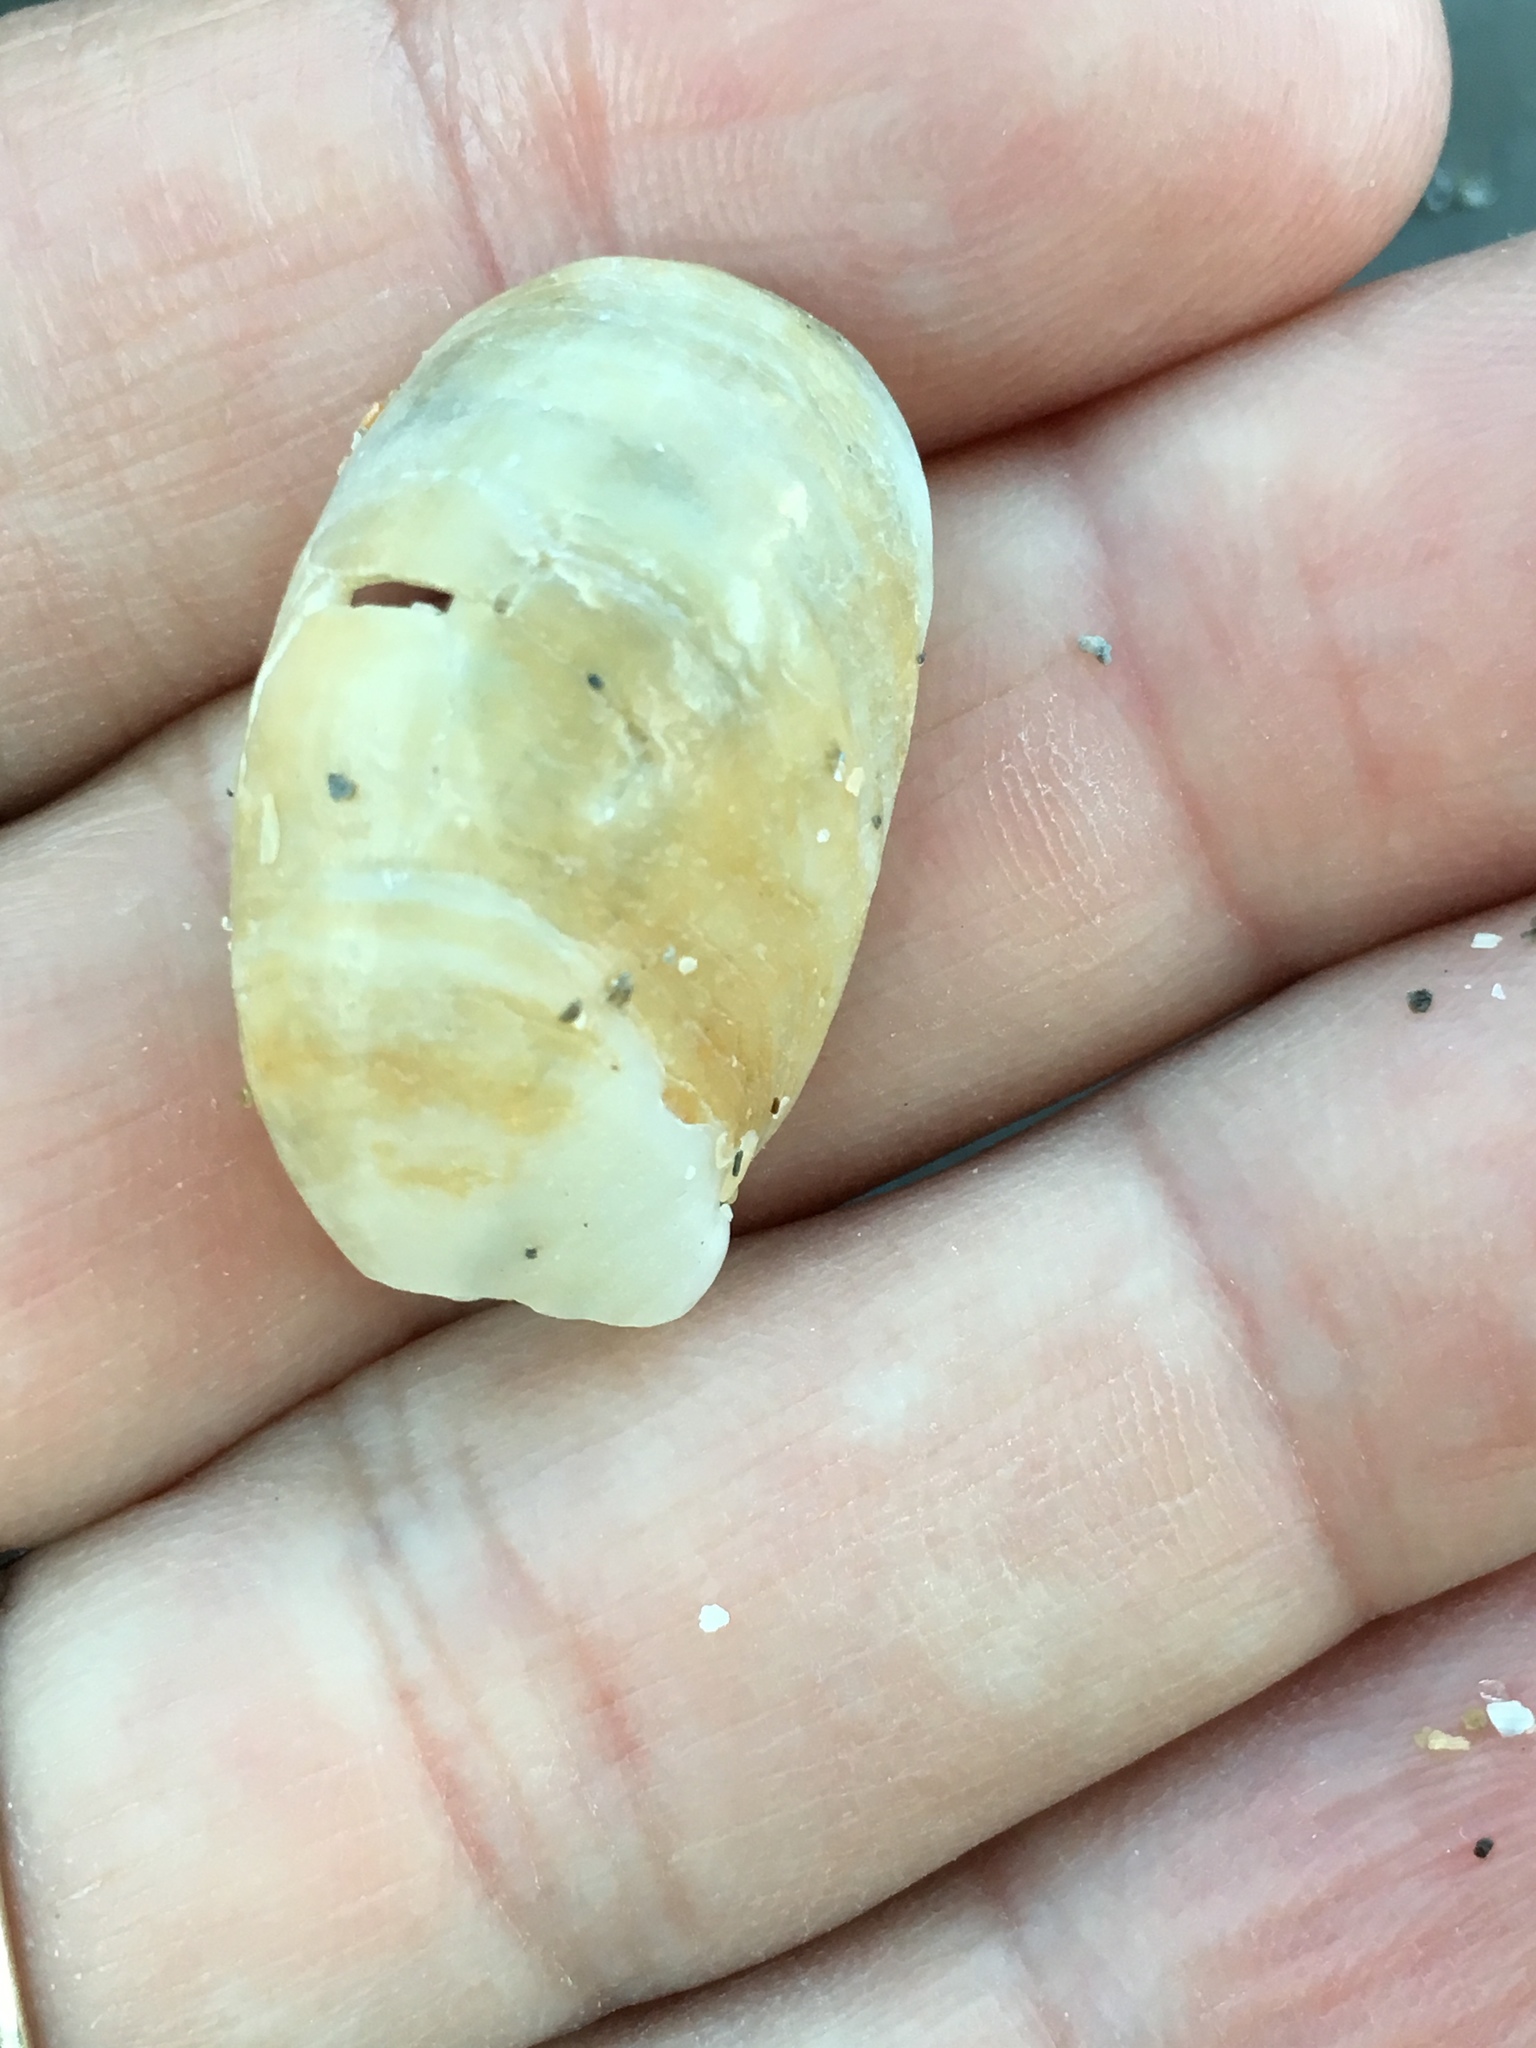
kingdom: Animalia
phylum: Mollusca
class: Gastropoda
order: Littorinimorpha
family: Calyptraeidae
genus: Crepidula
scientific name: Crepidula fornicata
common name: Slipper limpet
